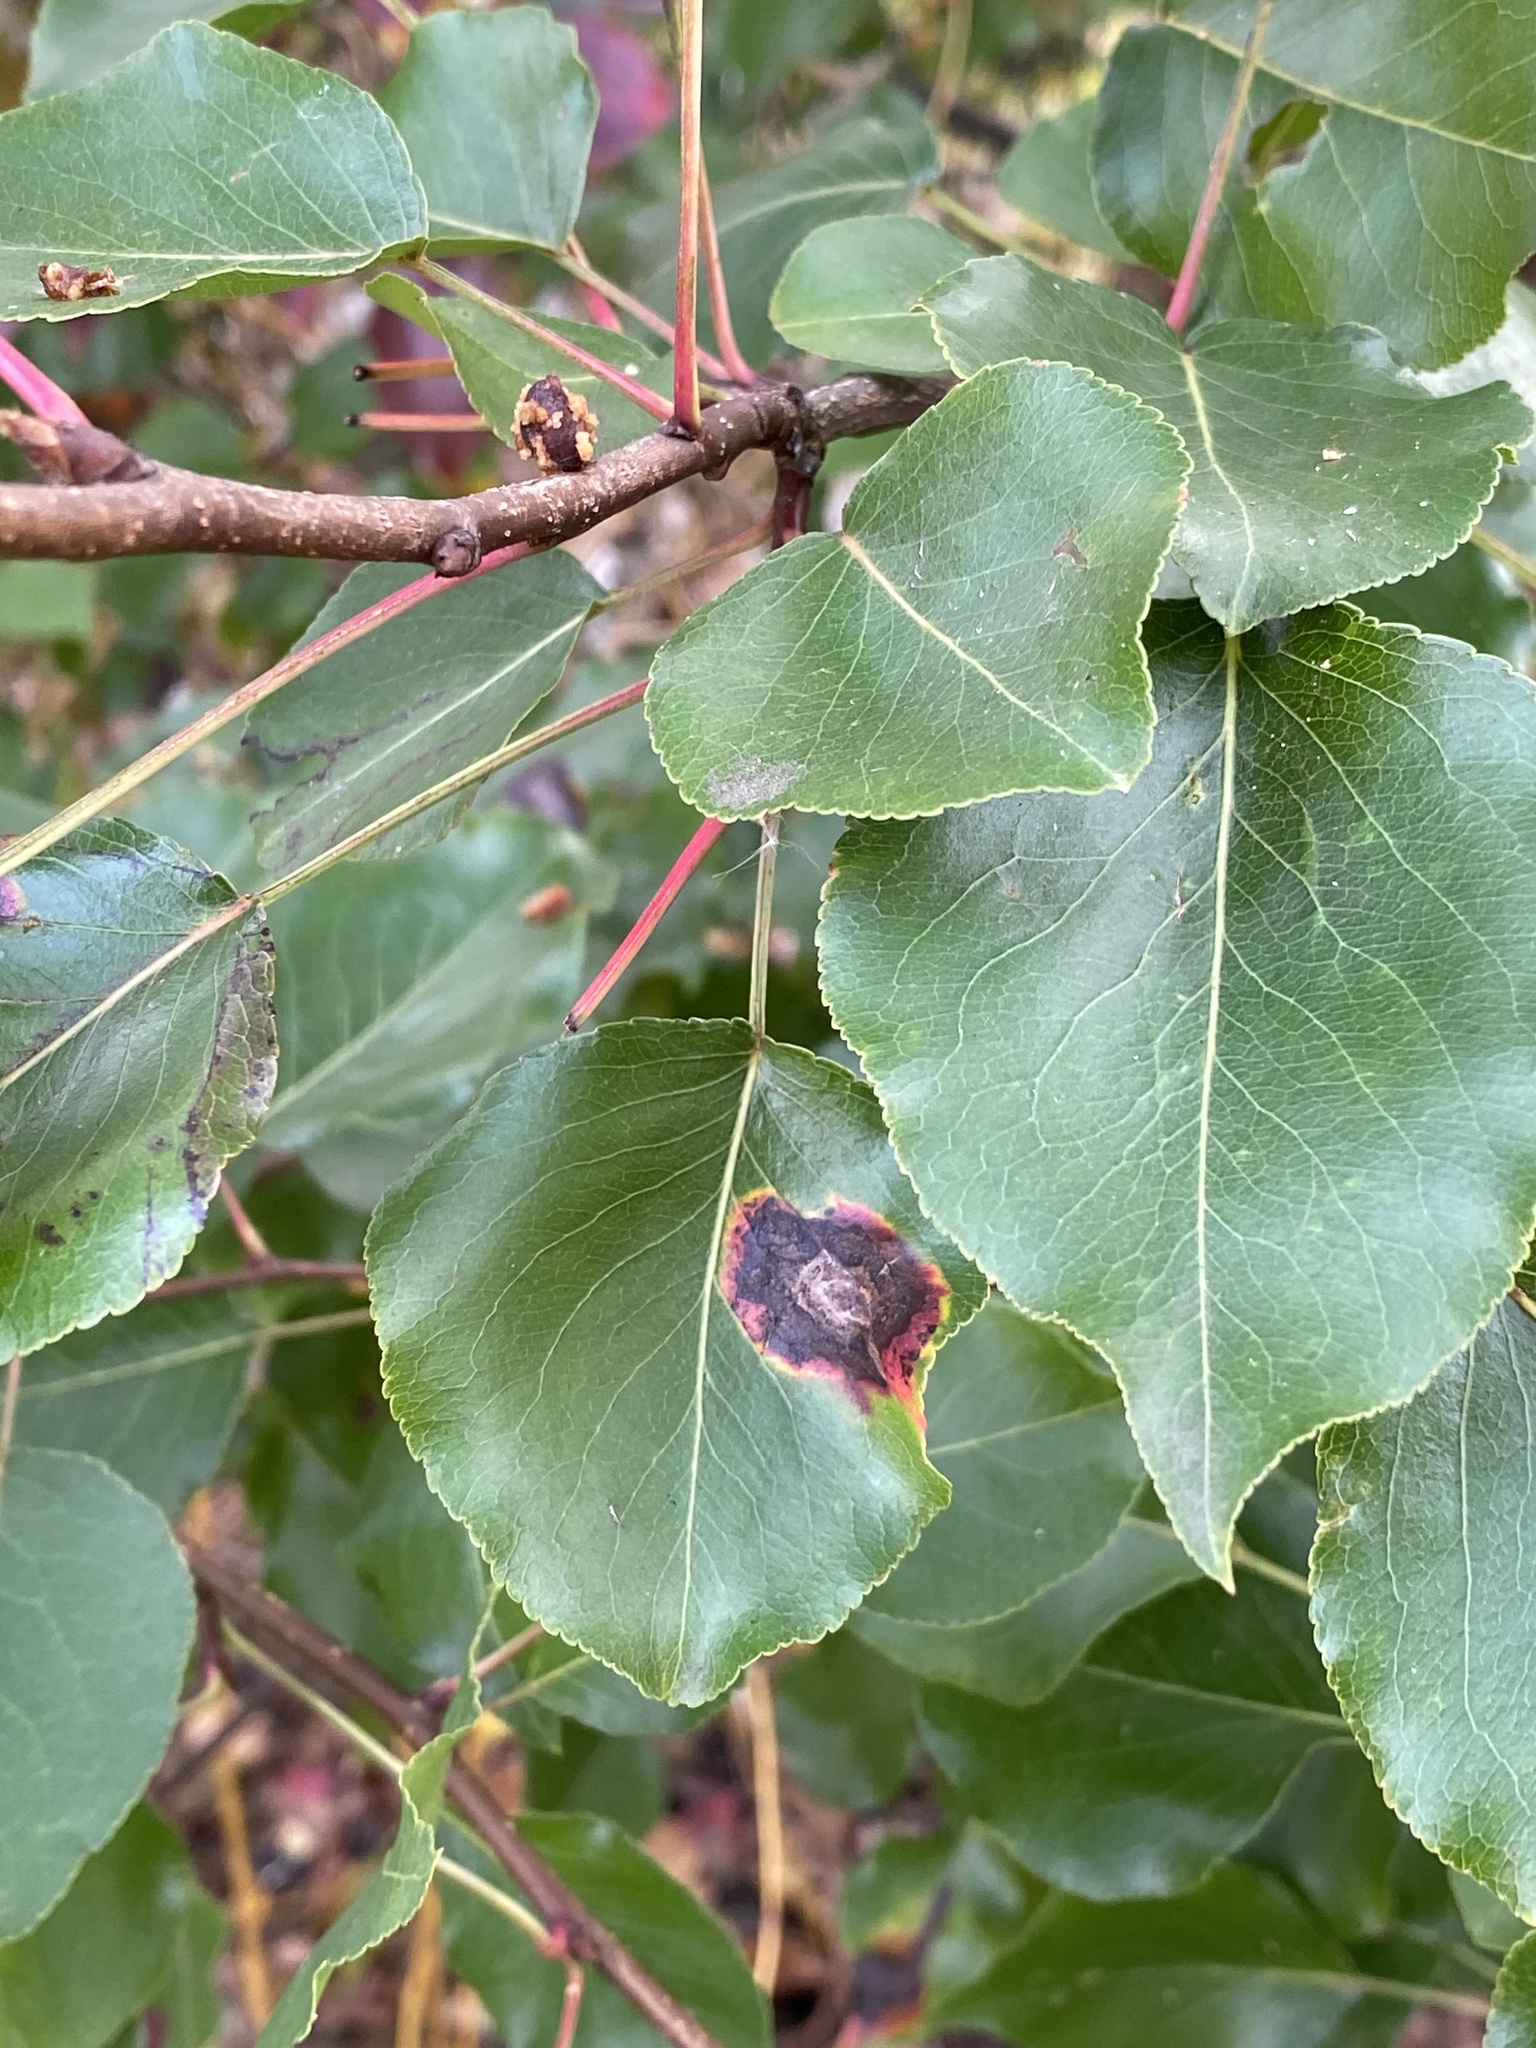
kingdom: Fungi
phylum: Basidiomycota
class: Pucciniomycetes
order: Pucciniales
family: Gymnosporangiaceae
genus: Gymnosporangium
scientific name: Gymnosporangium sabinae
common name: Pear trellis rust fungus
